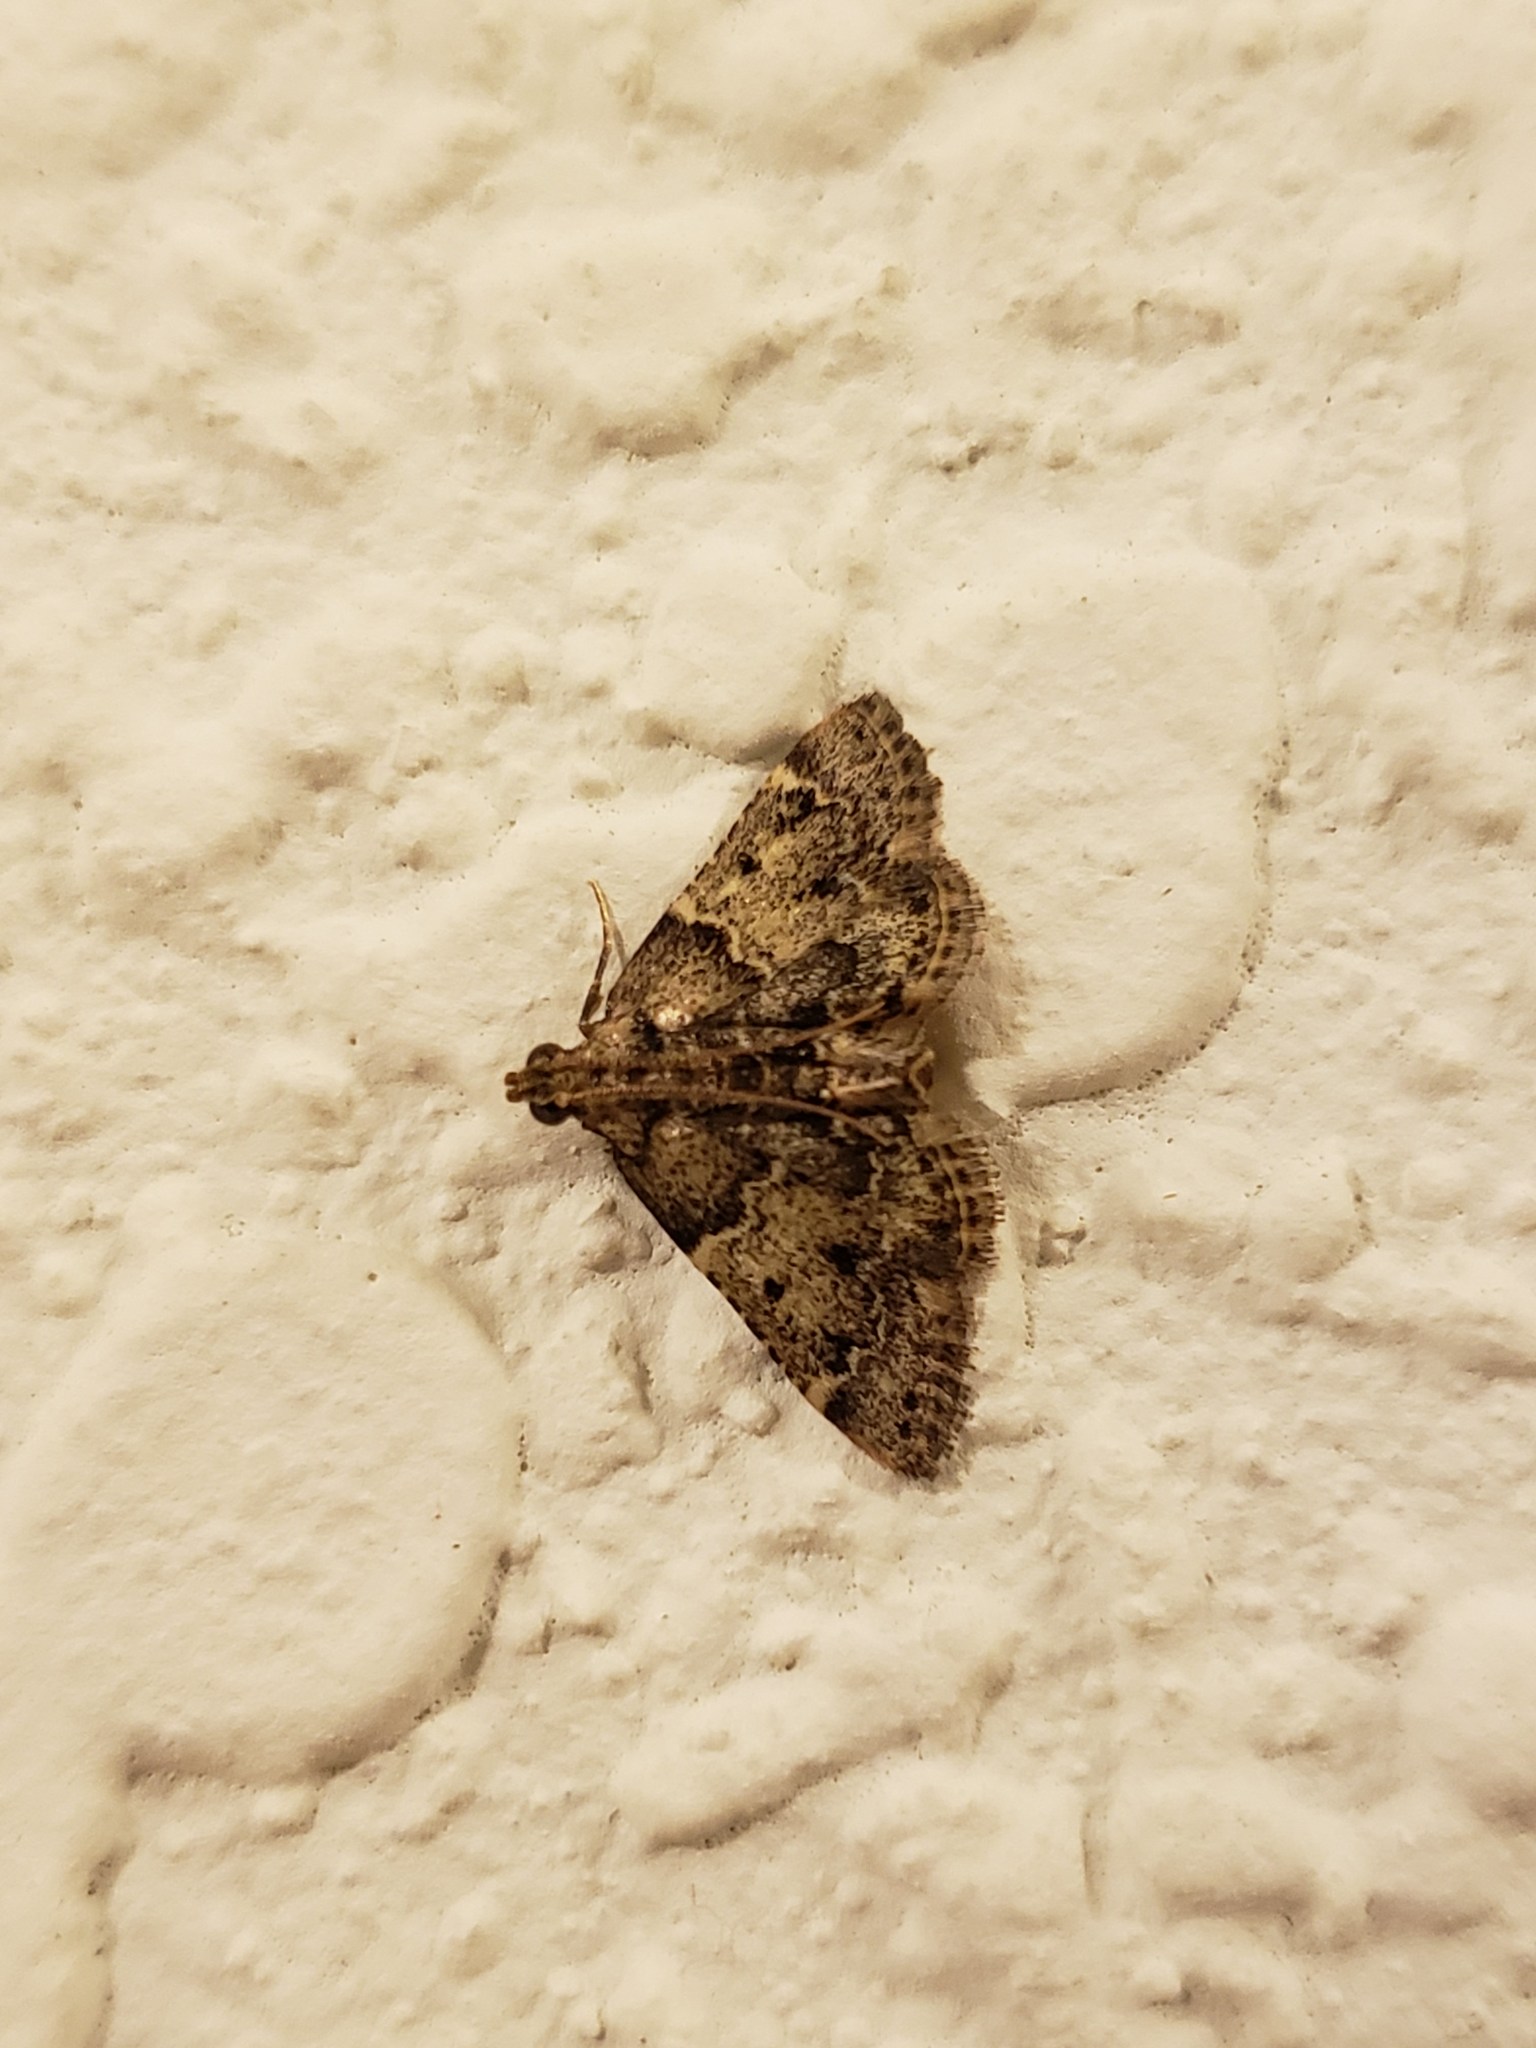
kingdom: Animalia
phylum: Arthropoda
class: Insecta
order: Lepidoptera
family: Pyralidae
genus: Pyralis
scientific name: Pyralis manihotalis
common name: Moth
